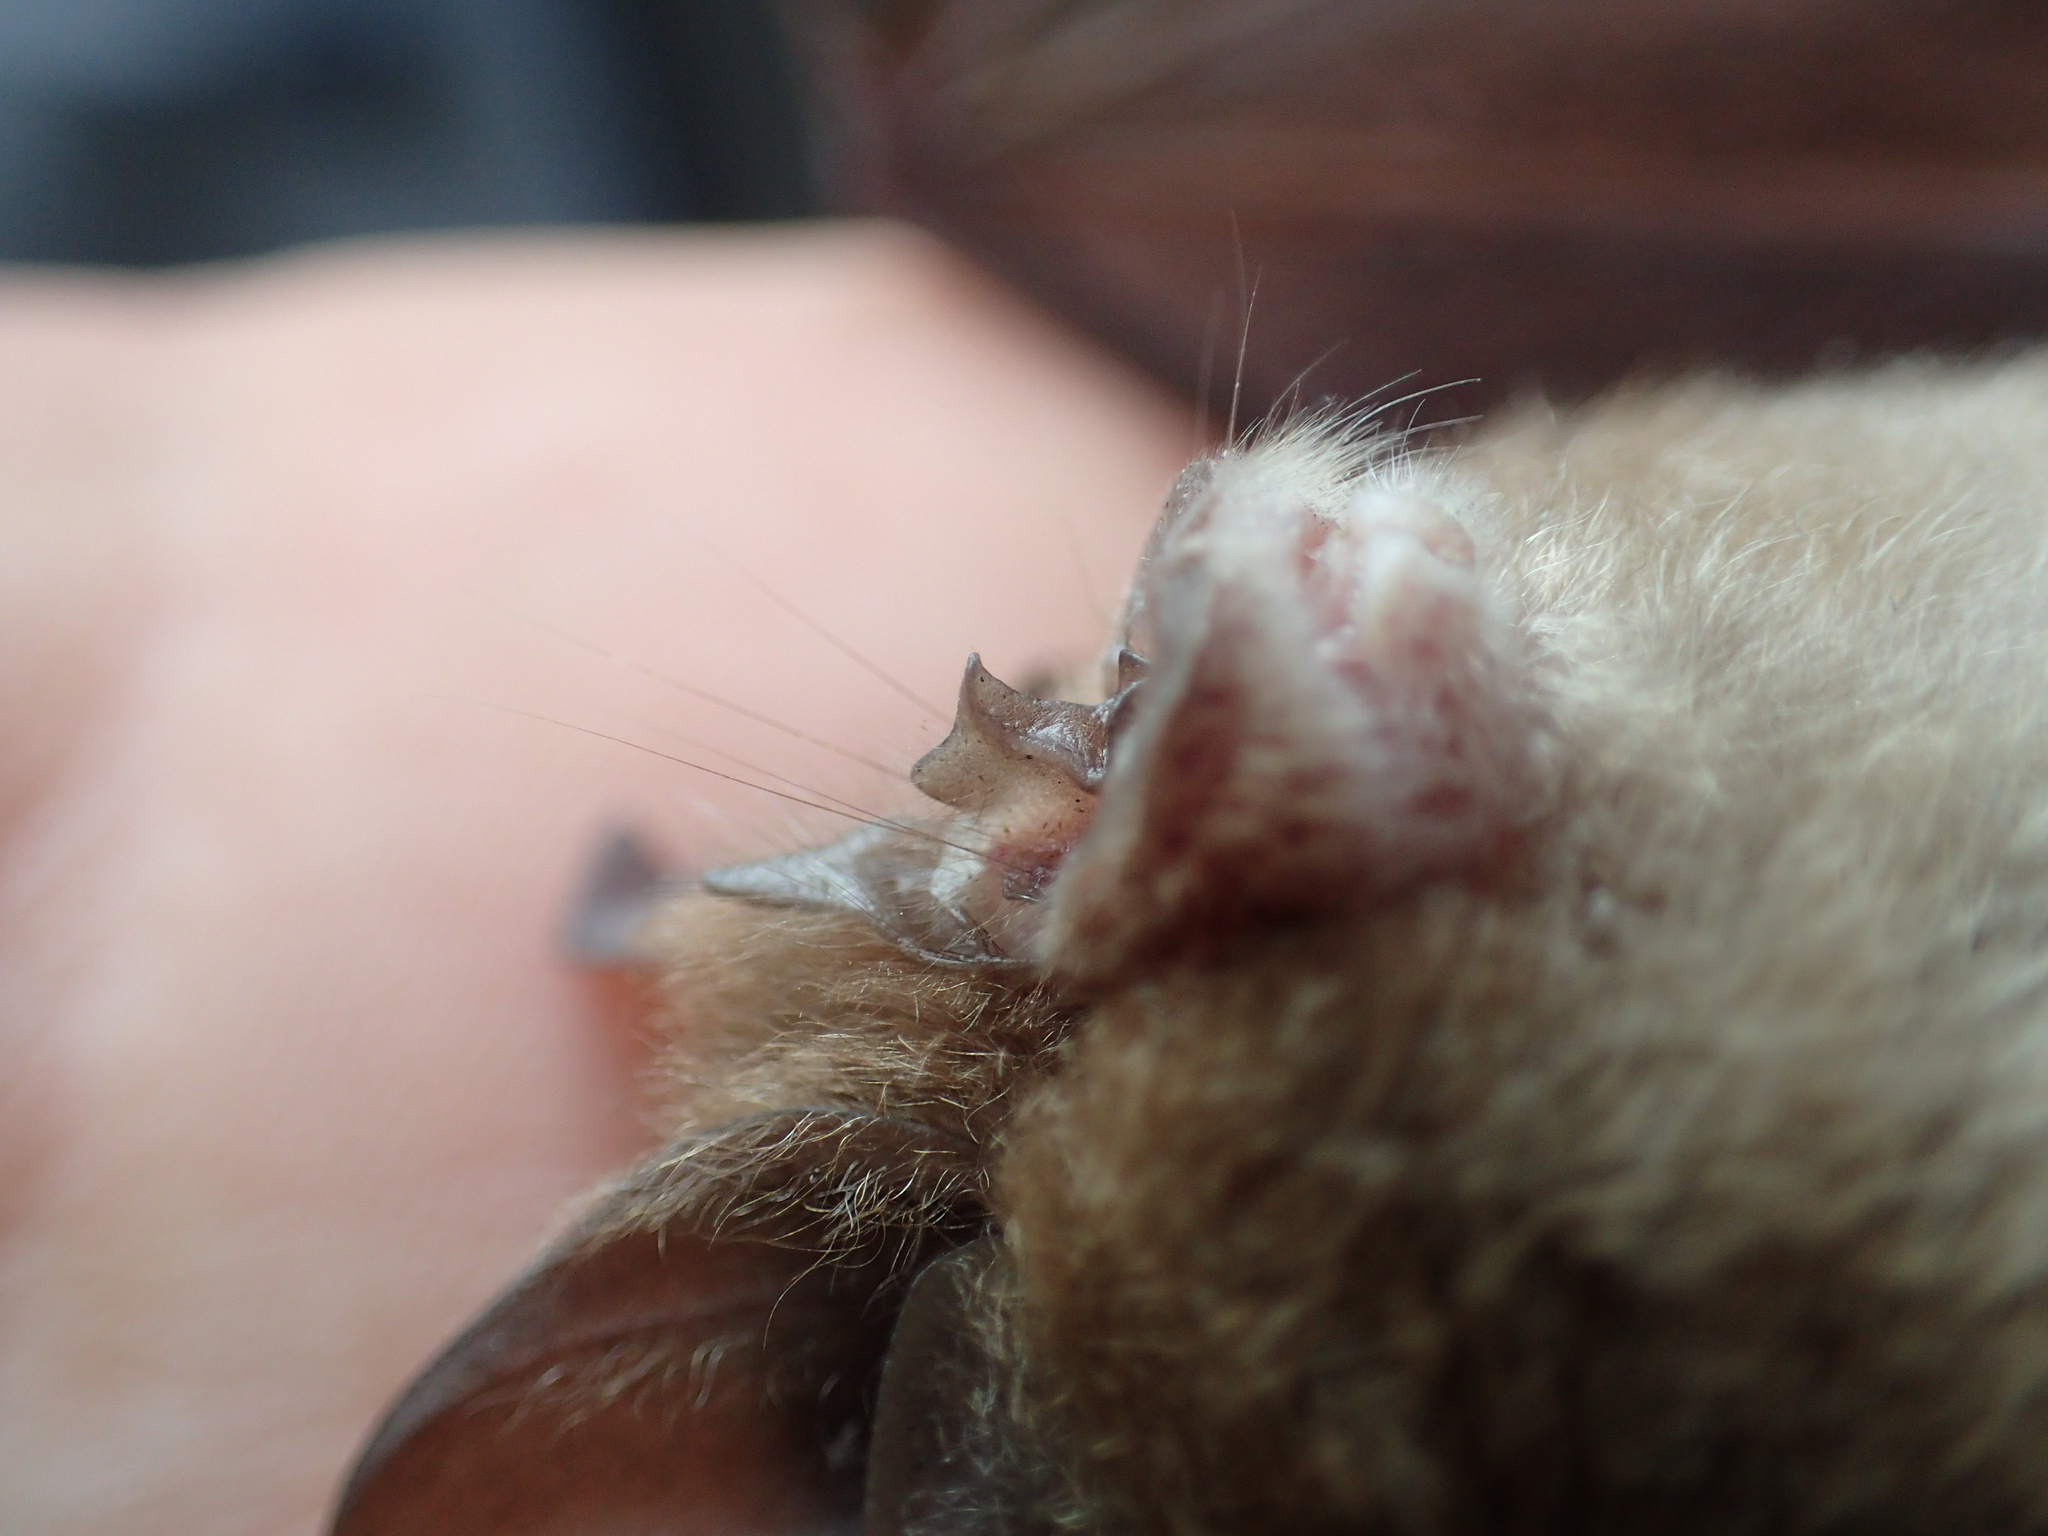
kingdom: Animalia
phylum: Chordata
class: Mammalia
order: Chiroptera
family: Rhinolophidae
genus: Rhinolophus
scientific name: Rhinolophus hipposideros
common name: Lesser horseshoe bat
